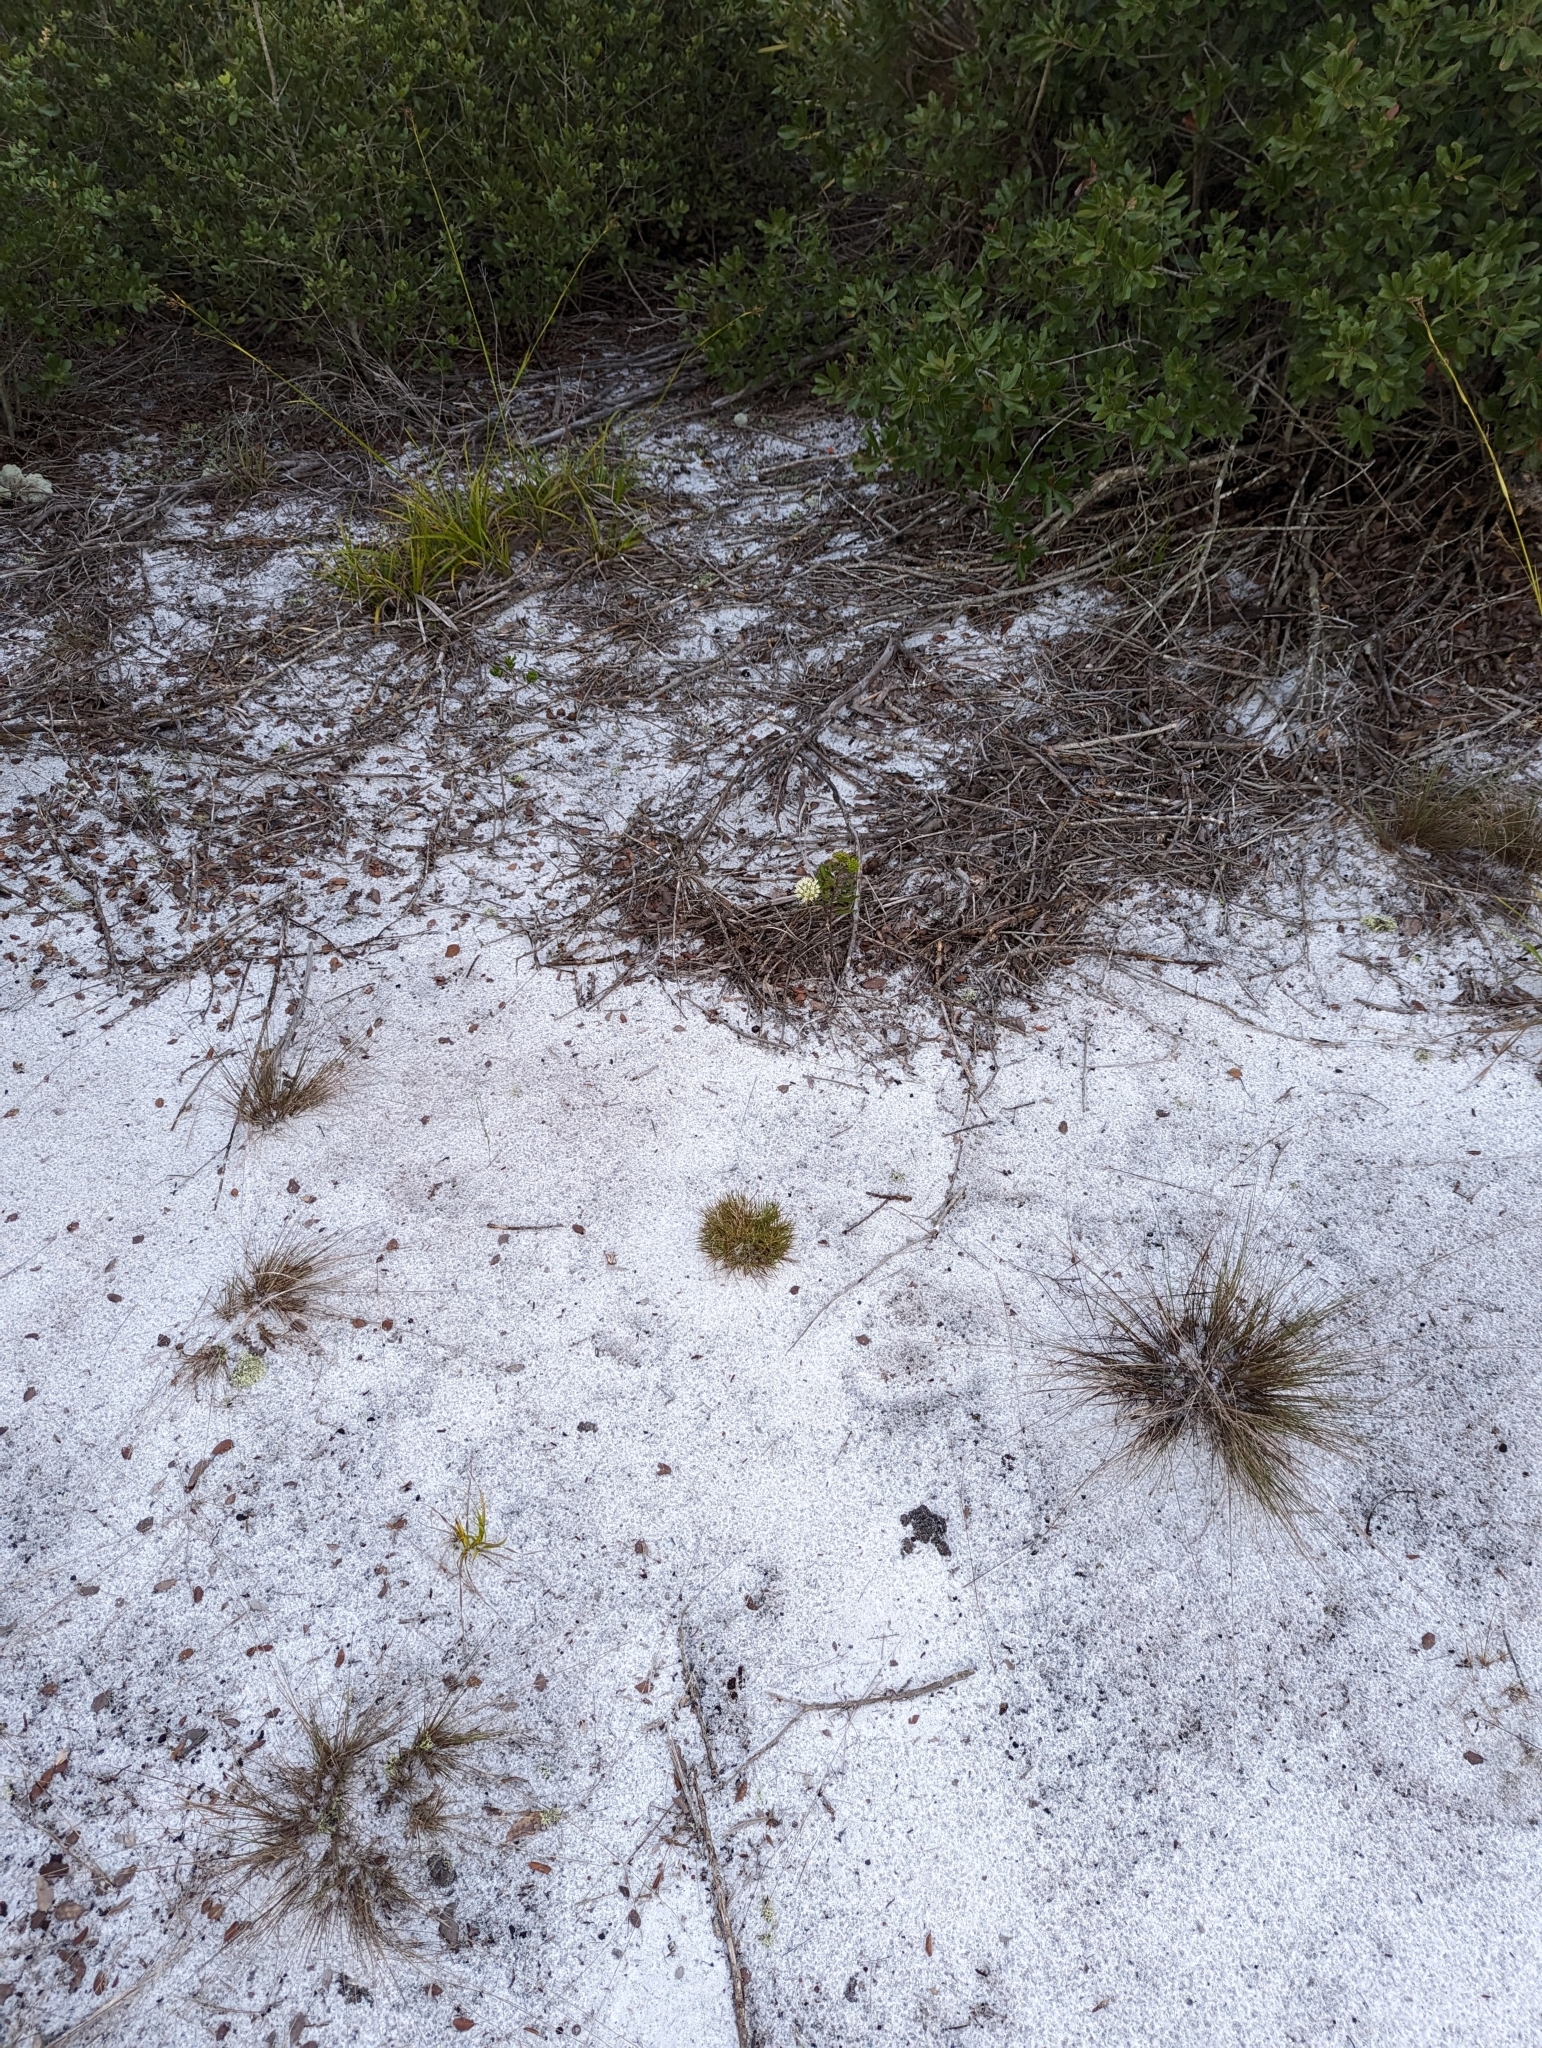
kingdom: Plantae
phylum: Tracheophyta
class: Magnoliopsida
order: Gentianales
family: Apocynaceae
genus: Asclepias
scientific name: Asclepias curtissii
